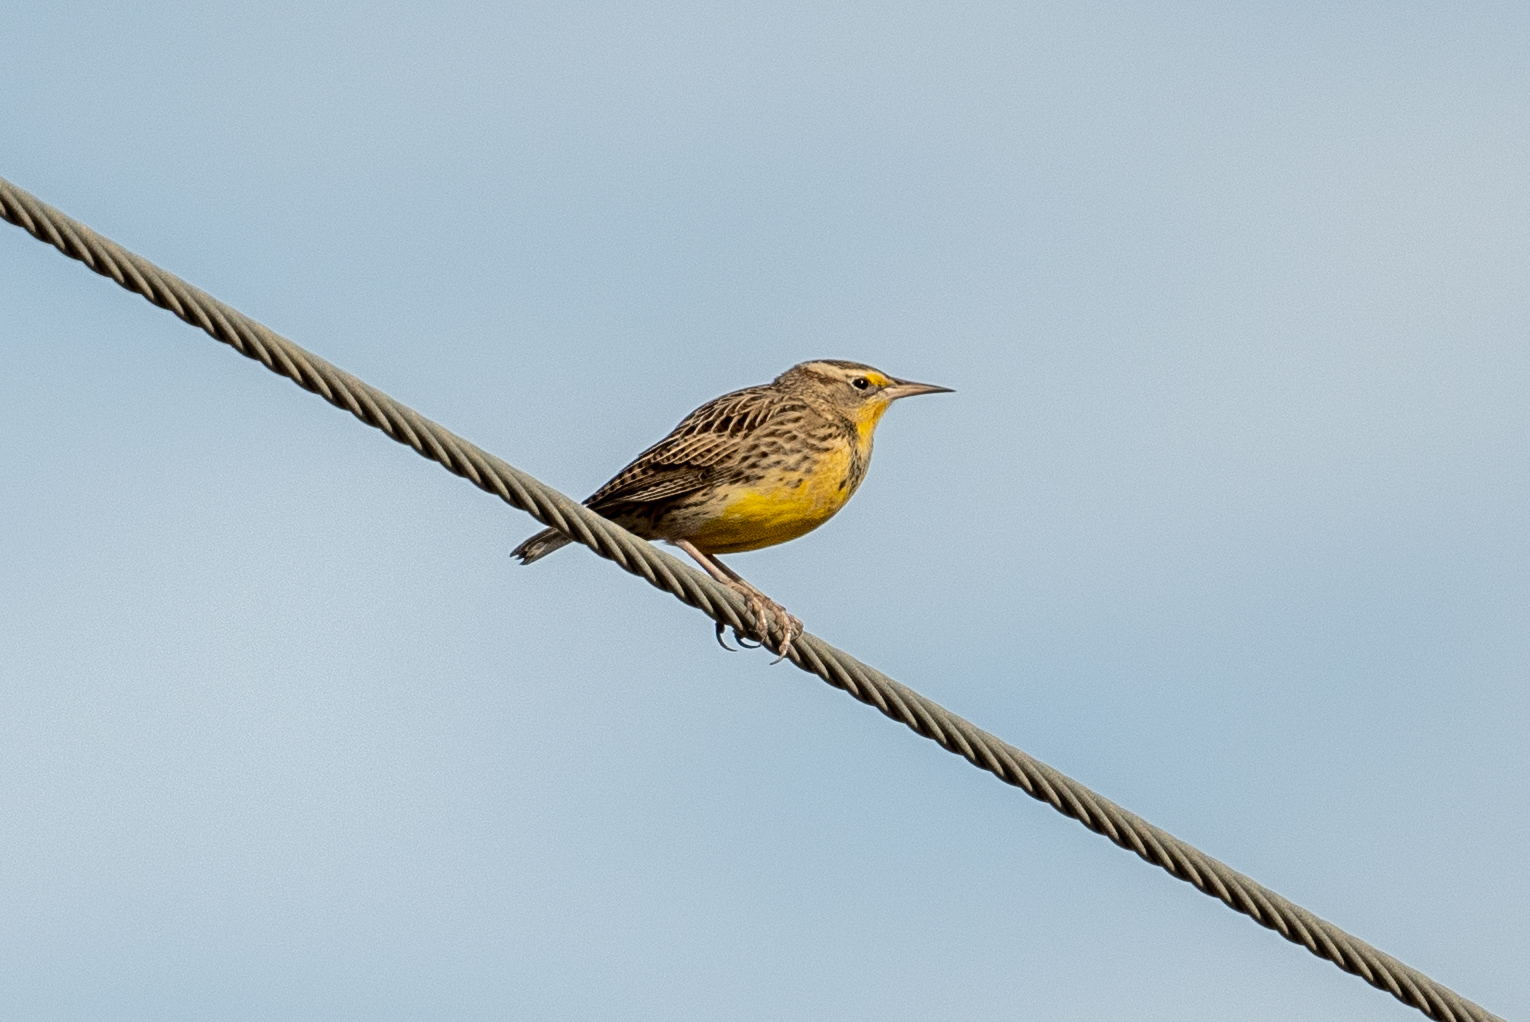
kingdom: Animalia
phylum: Chordata
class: Aves
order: Passeriformes
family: Icteridae
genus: Sturnella
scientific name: Sturnella neglecta
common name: Western meadowlark
